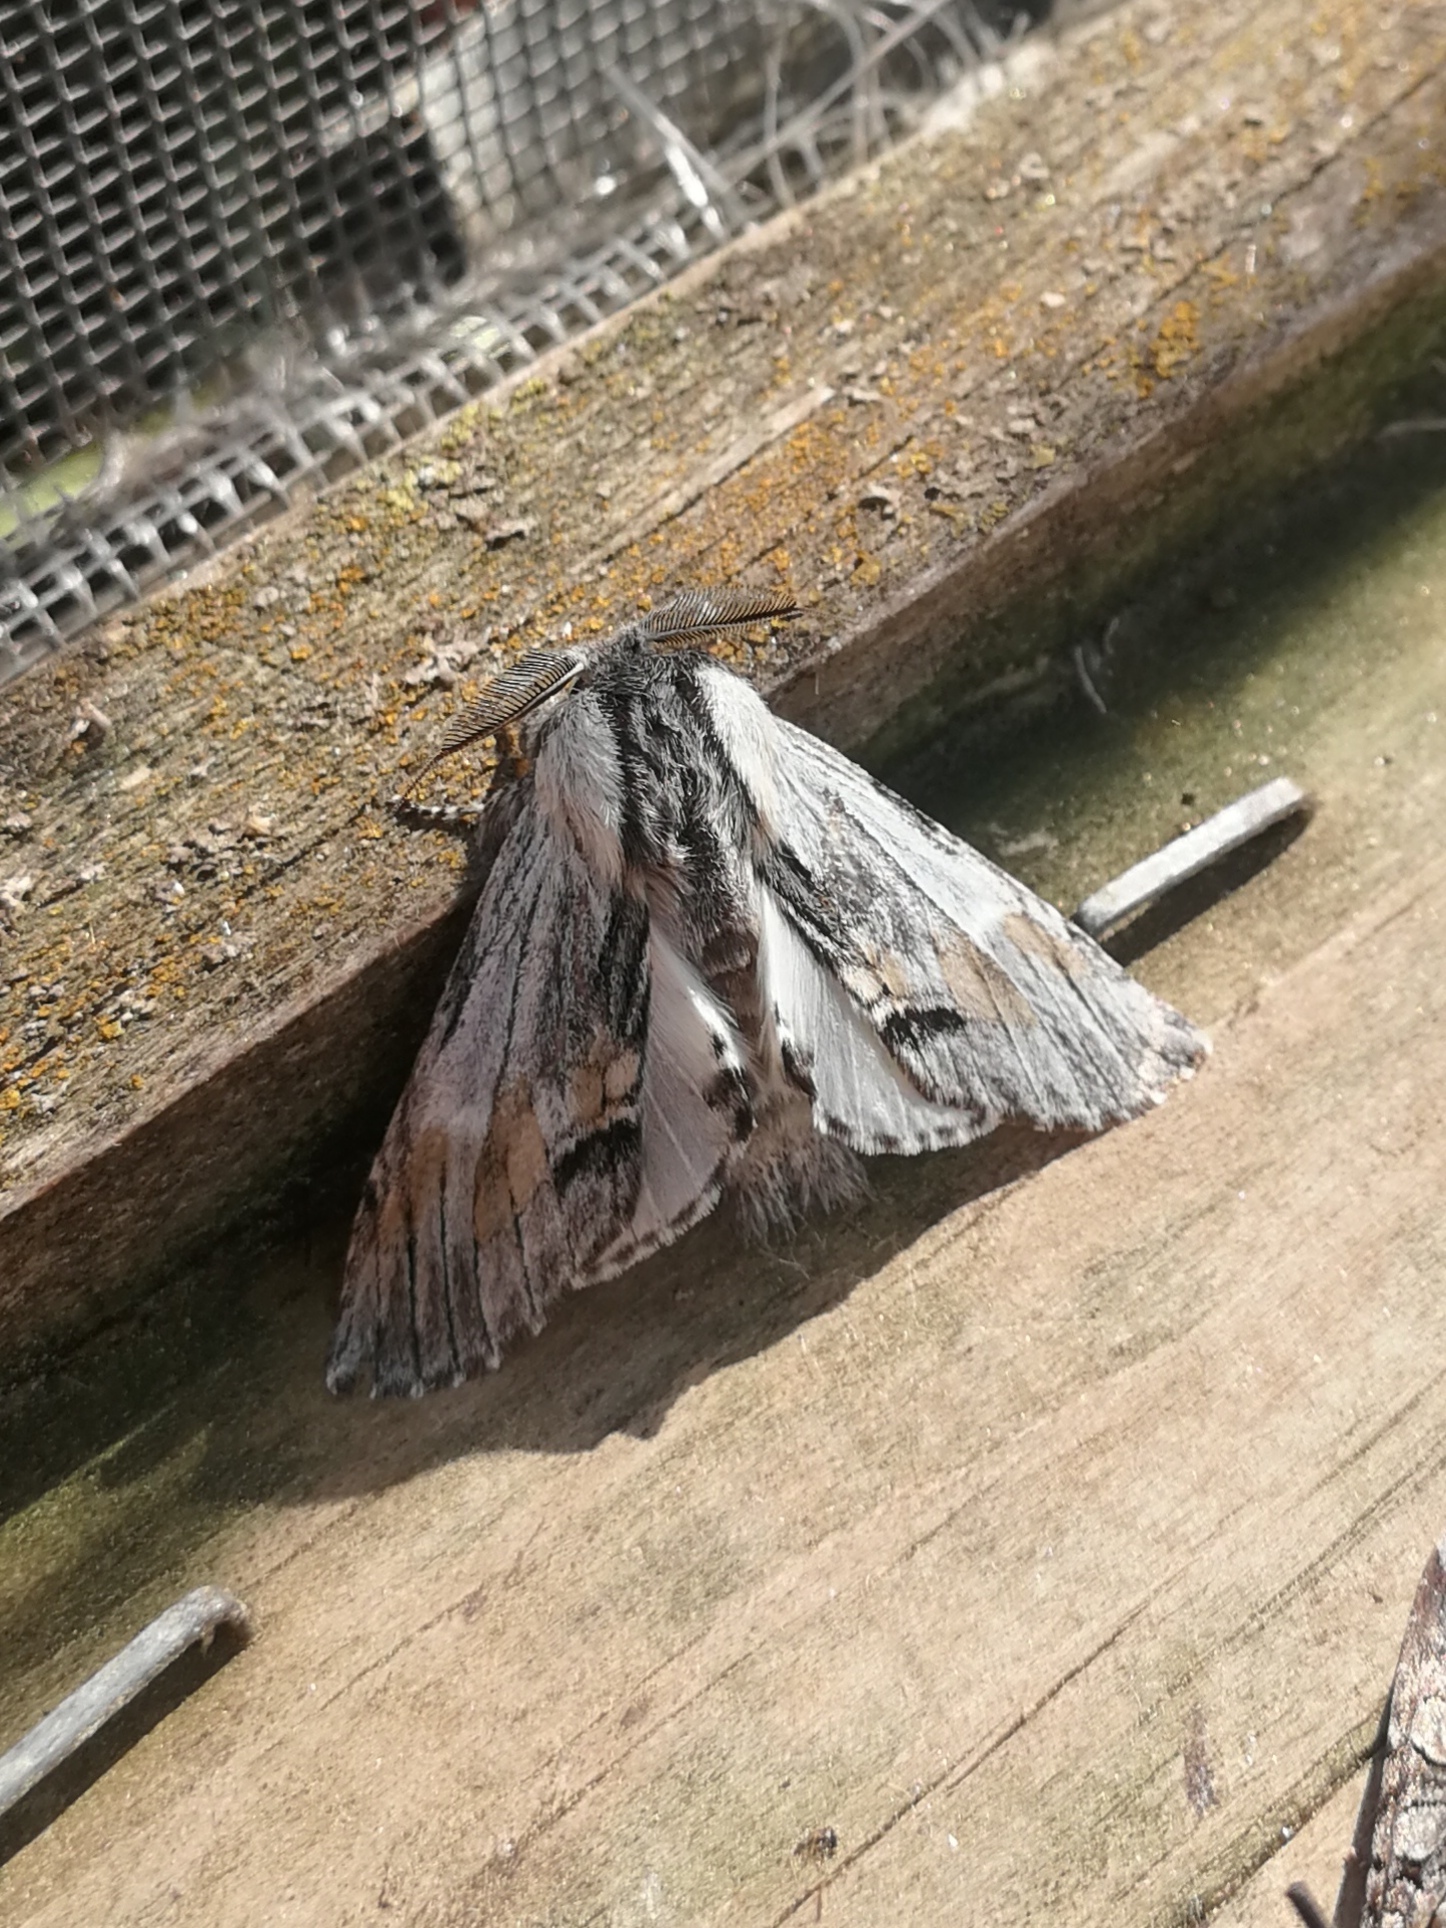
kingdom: Animalia
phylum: Arthropoda
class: Insecta
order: Lepidoptera
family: Notodontidae
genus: Harpyia
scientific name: Harpyia milhauseri
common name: Tawny prominent
